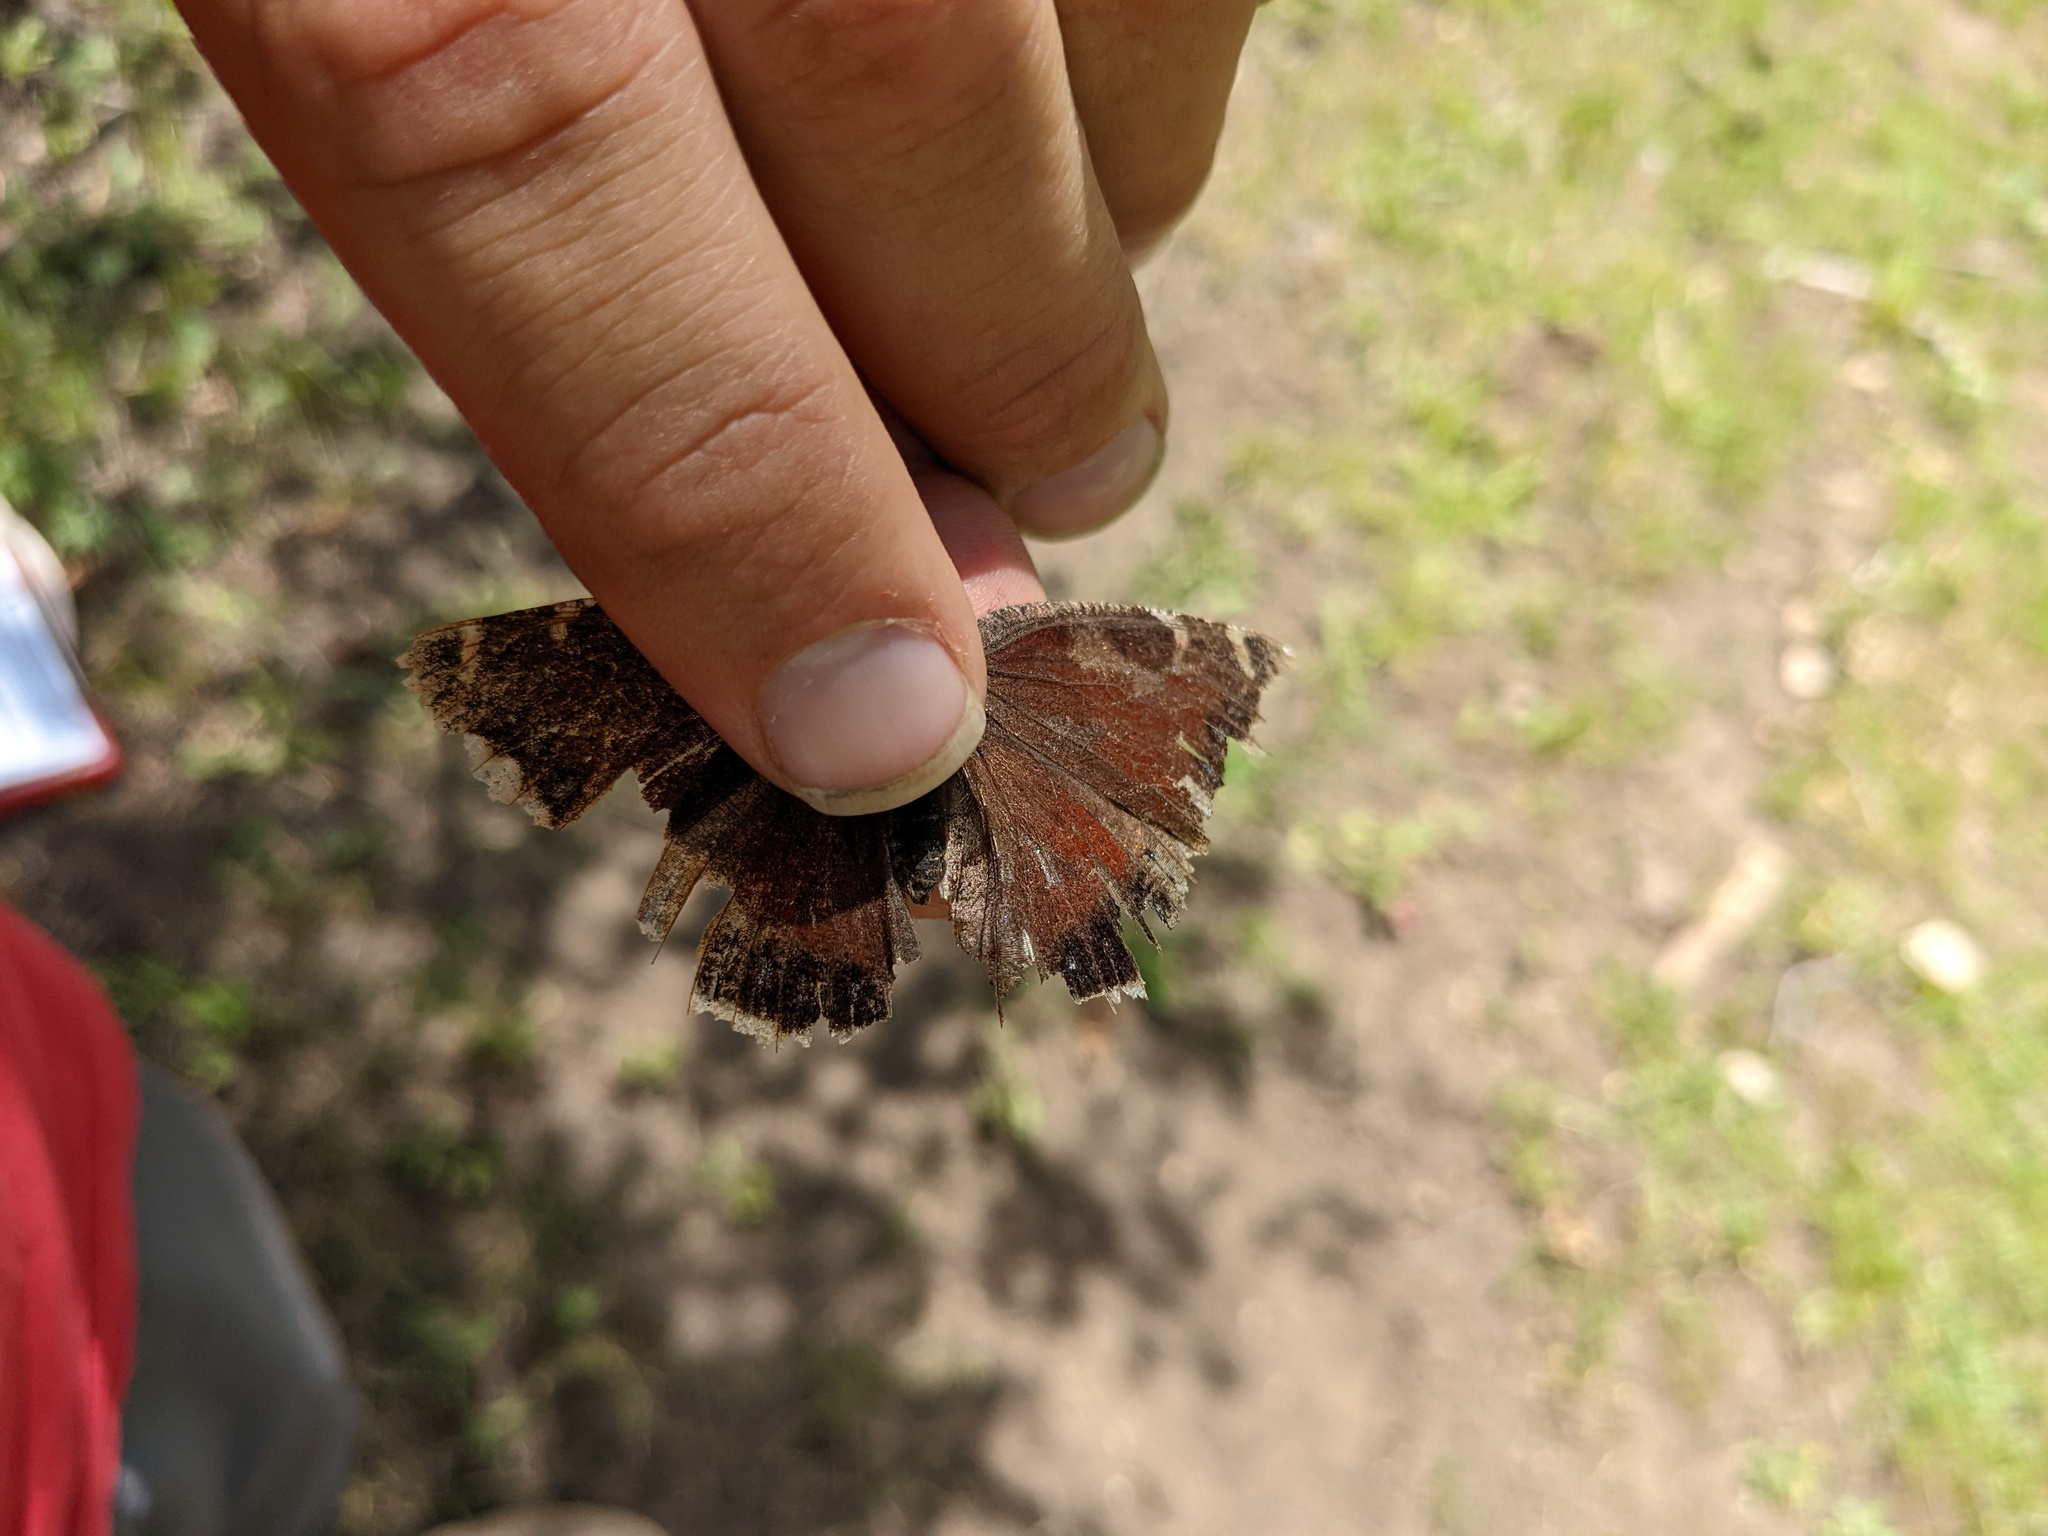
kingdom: Animalia
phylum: Arthropoda
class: Insecta
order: Lepidoptera
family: Nymphalidae
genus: Nymphalis
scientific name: Nymphalis antiopa
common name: Camberwell beauty
